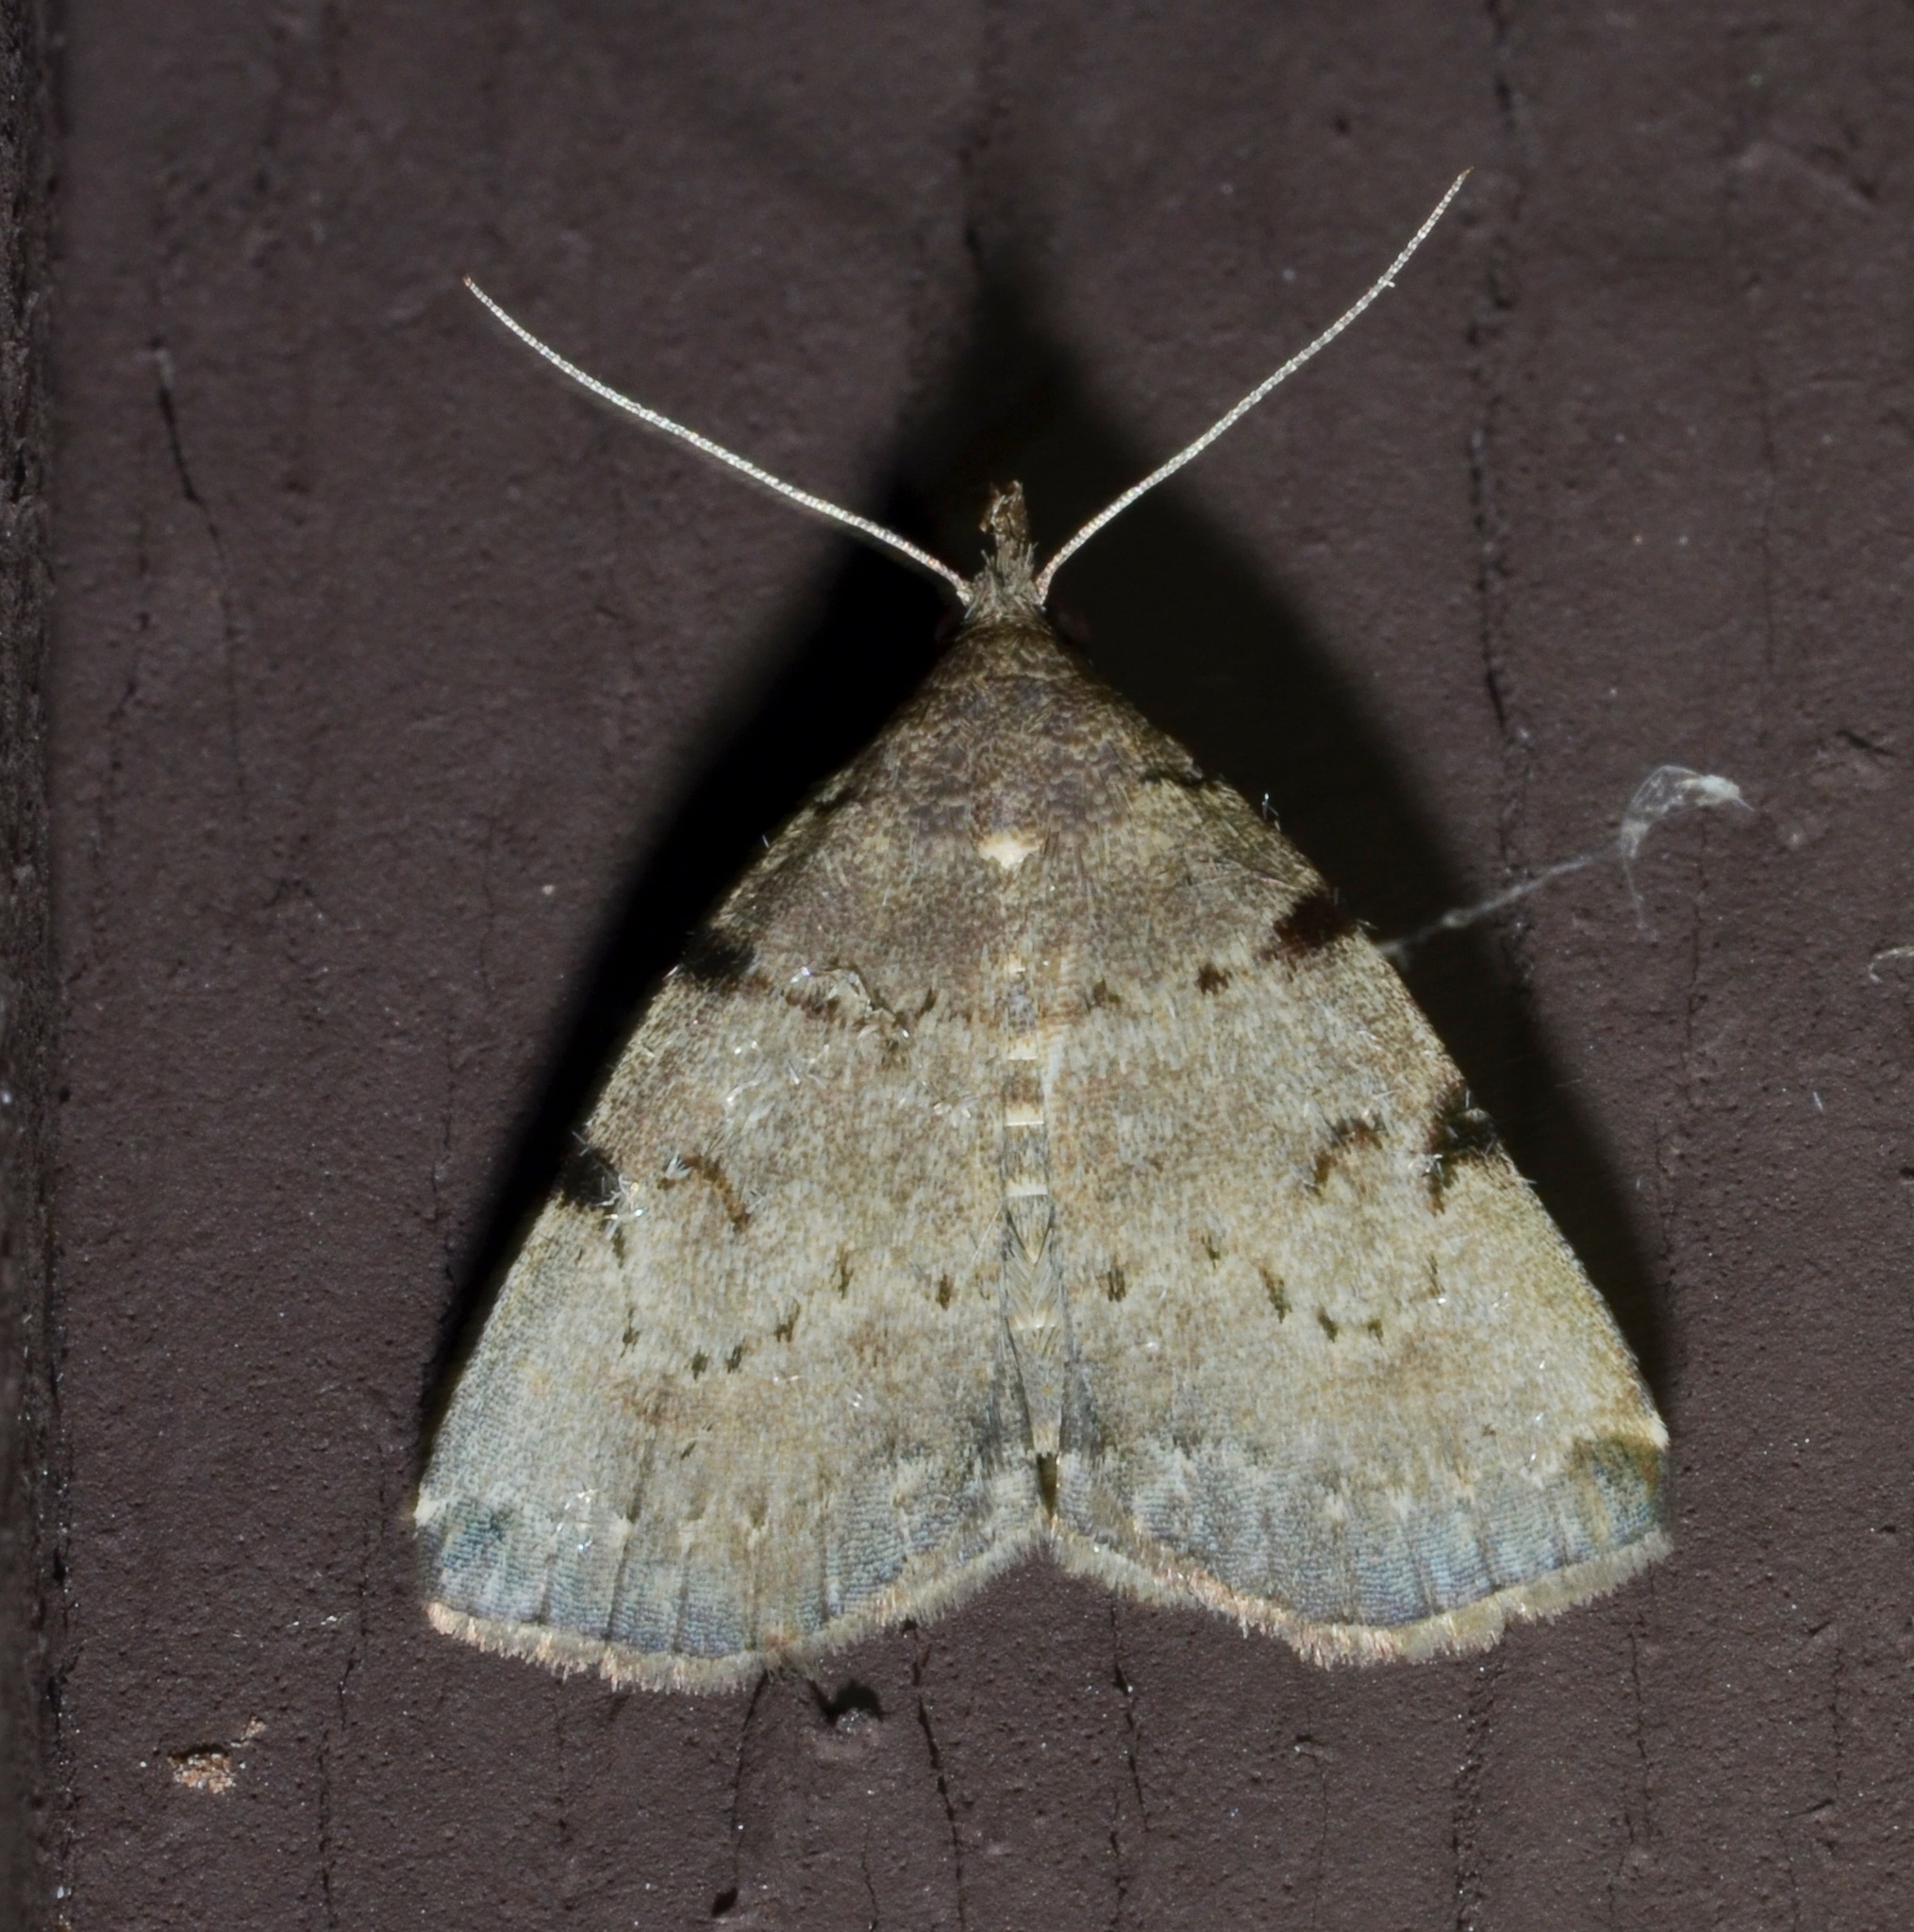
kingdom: Animalia
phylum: Arthropoda
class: Insecta
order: Lepidoptera
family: Erebidae
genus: Zanclognatha
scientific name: Zanclognatha lituralis
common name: Lettered fan-foot
